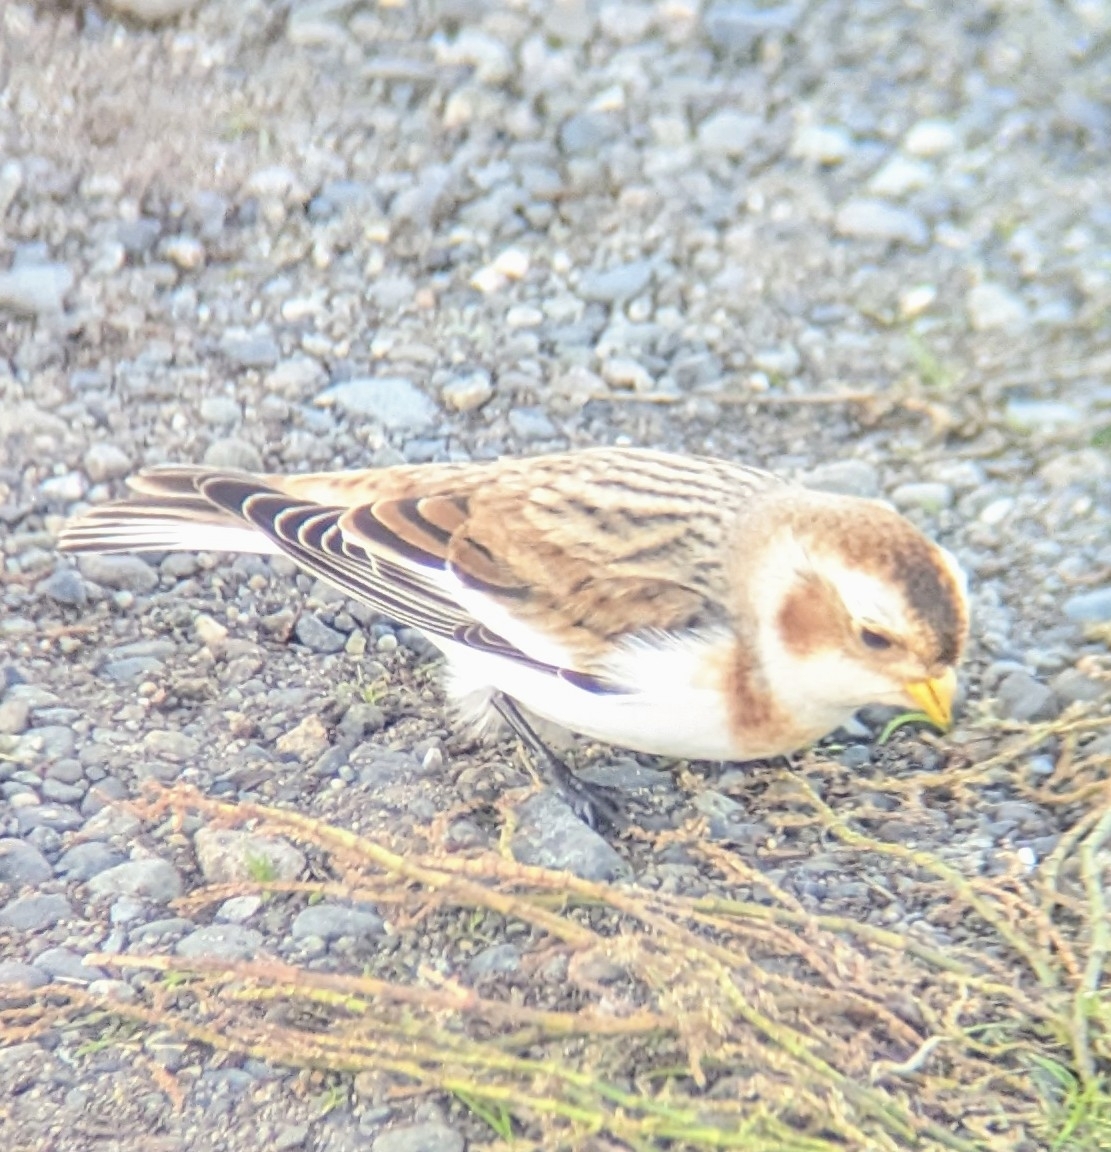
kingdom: Animalia
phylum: Chordata
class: Aves
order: Passeriformes
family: Calcariidae
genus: Plectrophenax
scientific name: Plectrophenax nivalis
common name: Snow bunting
